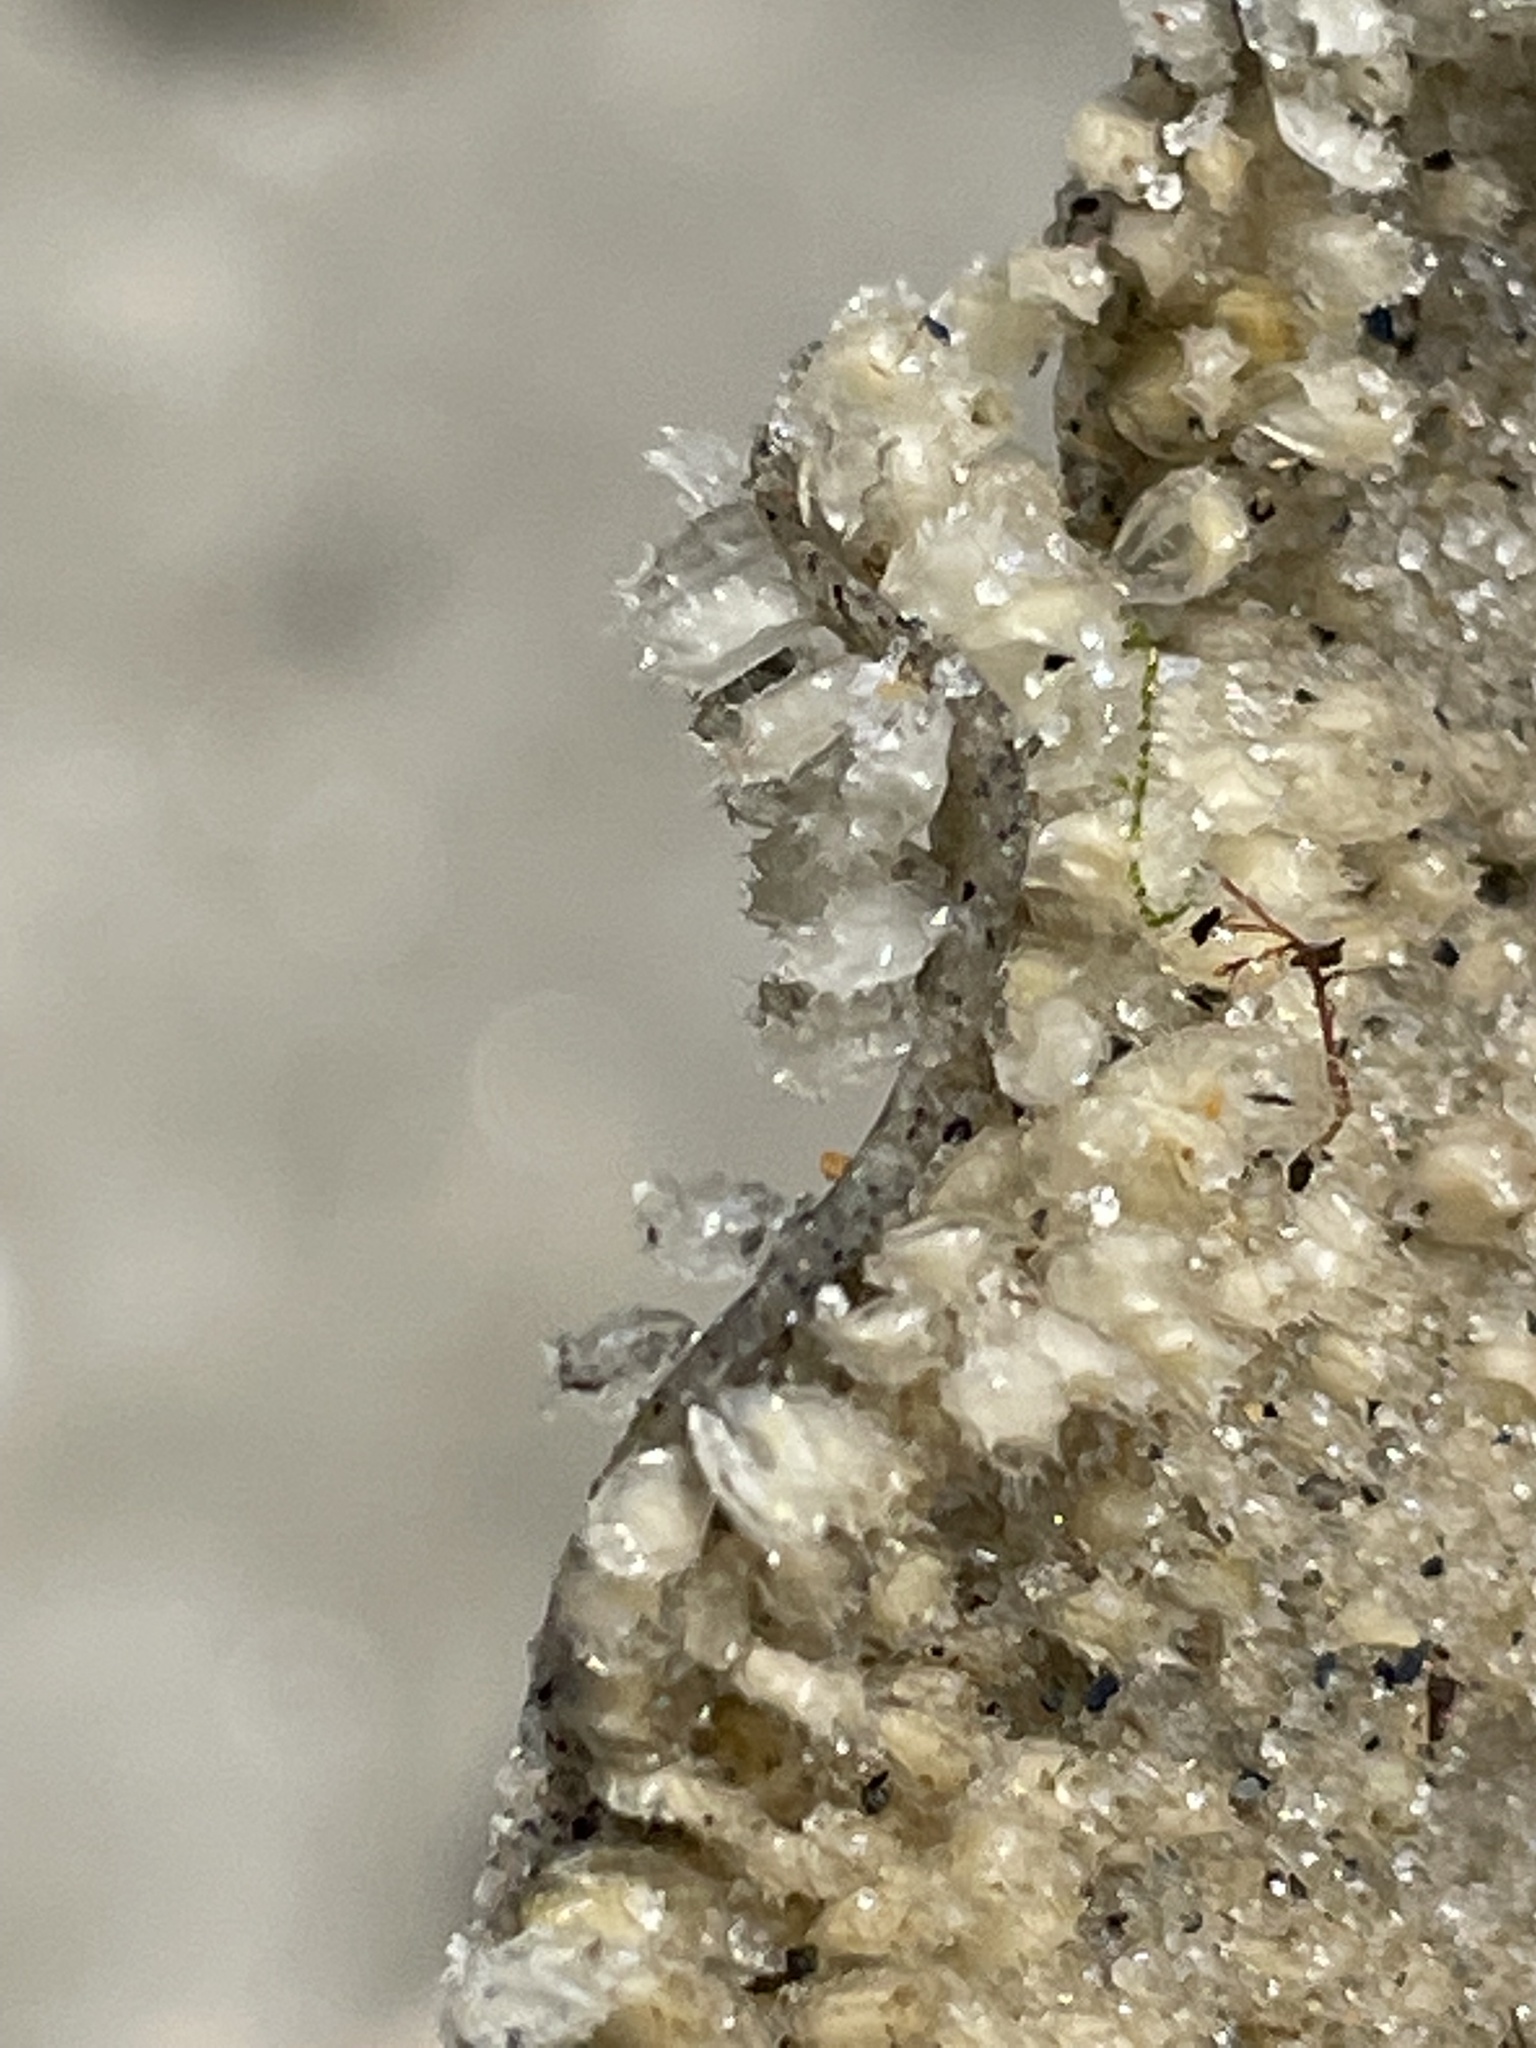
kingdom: Animalia
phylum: Mollusca
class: Gastropoda
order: Neogastropoda
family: Nassariidae
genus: Ilyanassa
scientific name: Ilyanassa obsoleta
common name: Eastern mudsnail
